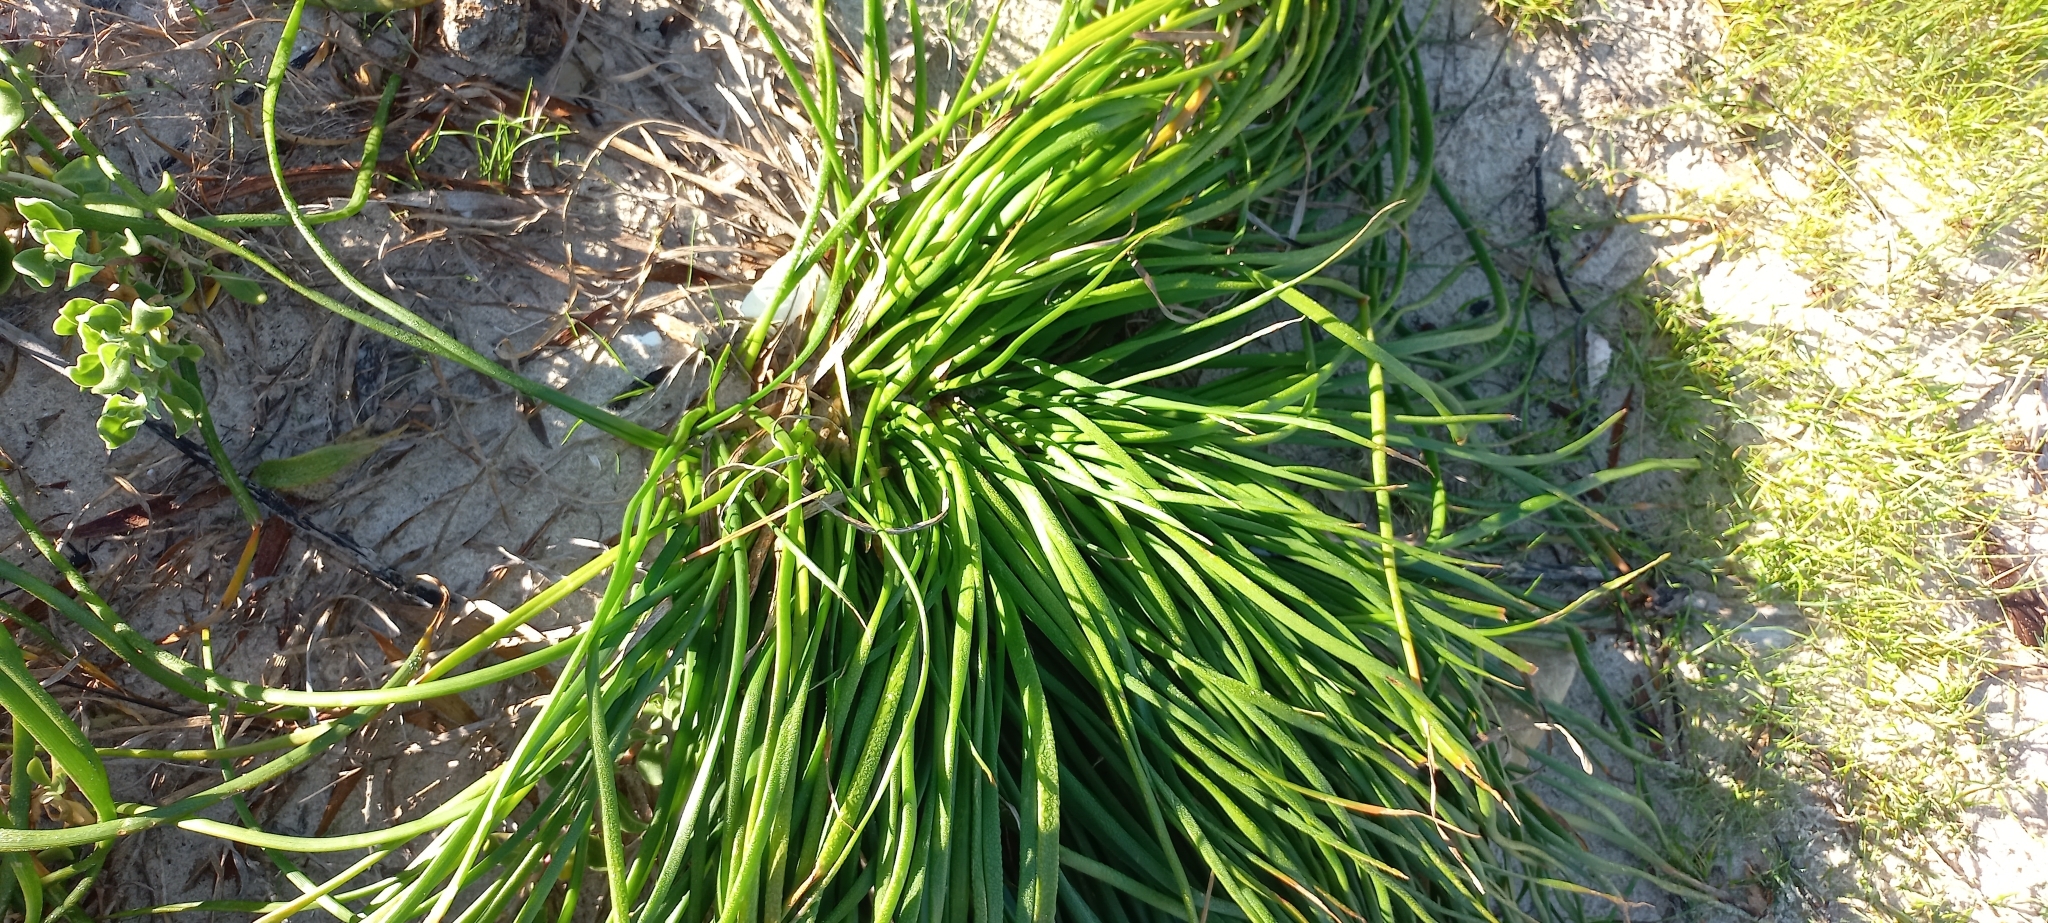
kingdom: Plantae
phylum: Tracheophyta
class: Liliopsida
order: Asparagales
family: Asphodelaceae
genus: Trachyandra
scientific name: Trachyandra divaricata
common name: Dune onionweed
